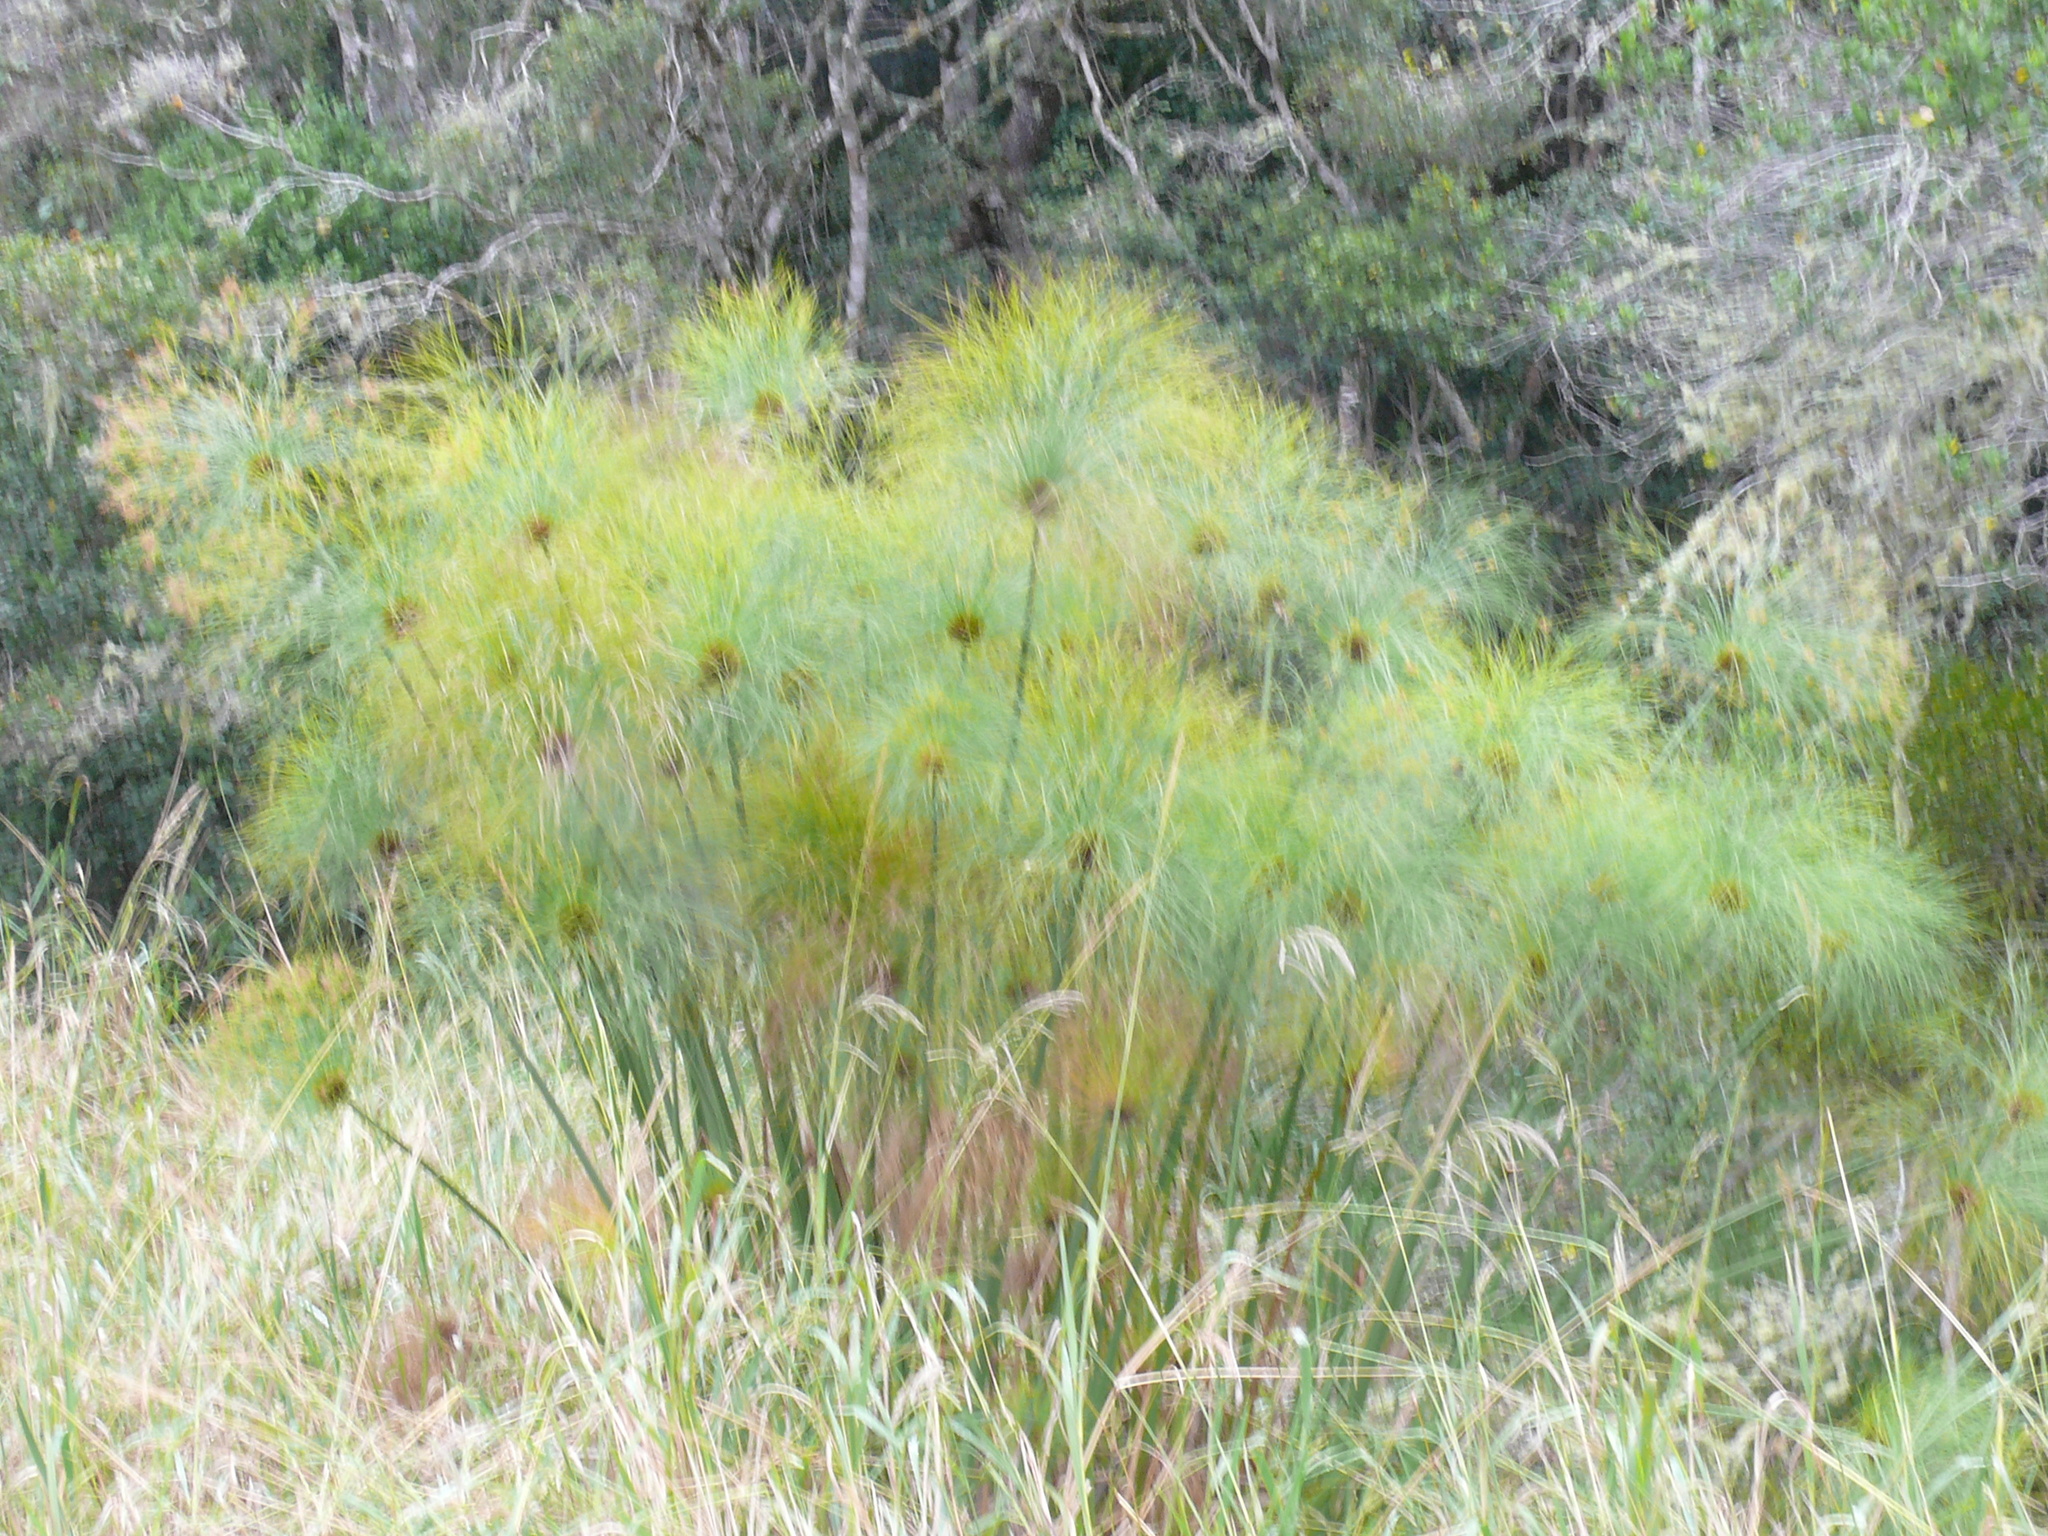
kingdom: Plantae
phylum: Tracheophyta
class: Liliopsida
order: Poales
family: Cyperaceae
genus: Cyperus
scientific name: Cyperus papyrus
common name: Papyrus
